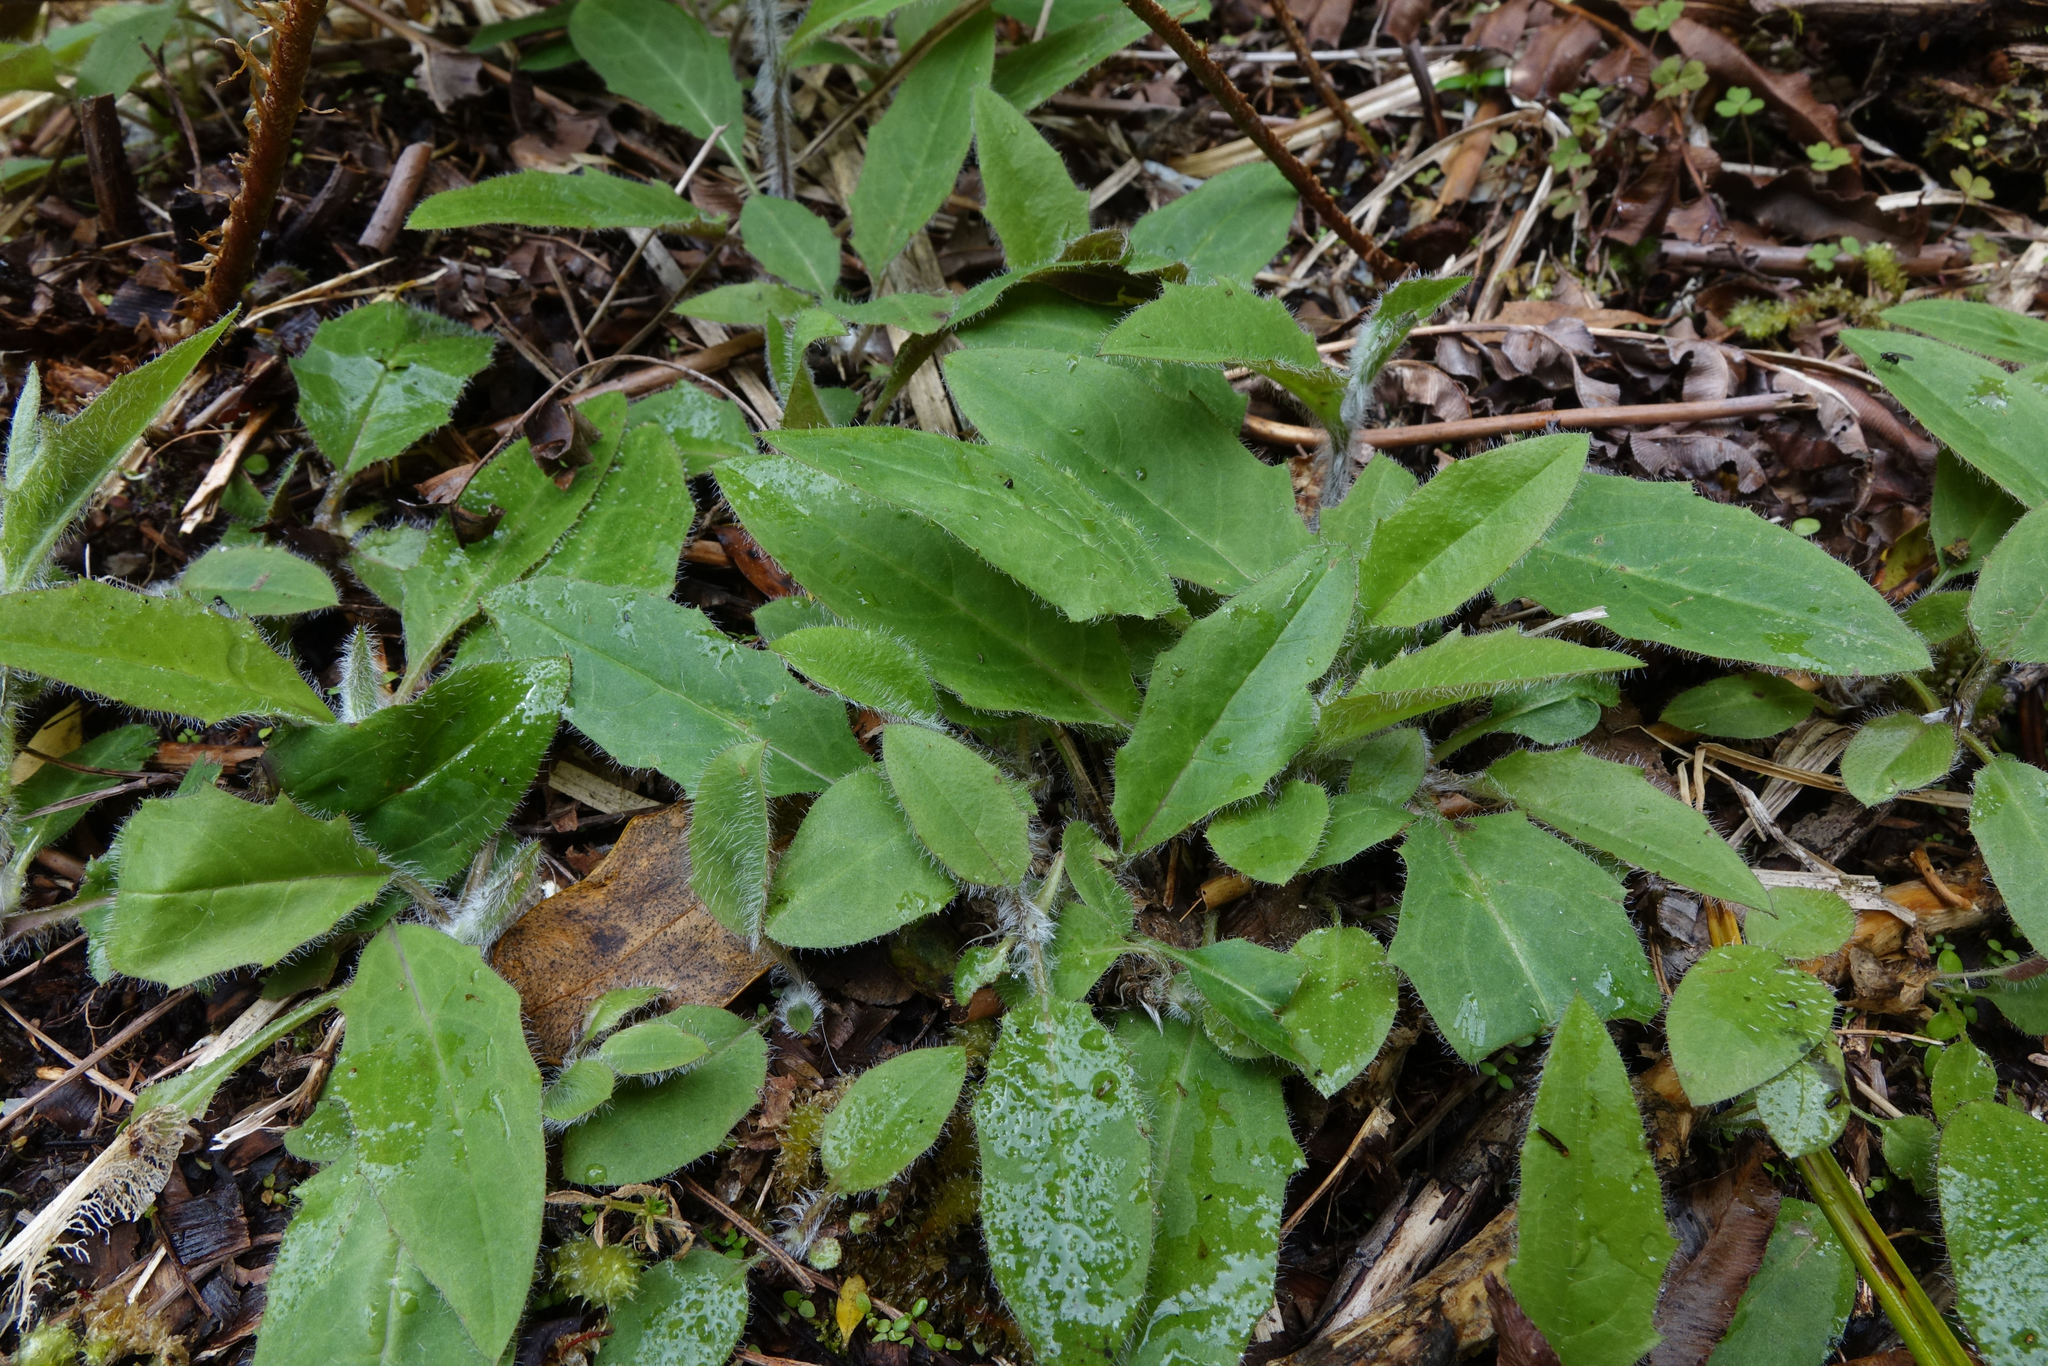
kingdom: Plantae
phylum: Tracheophyta
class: Magnoliopsida
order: Asterales
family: Asteraceae
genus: Hieracium
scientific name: Hieracium lepidulum
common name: Irregular-toothed hawkweed
